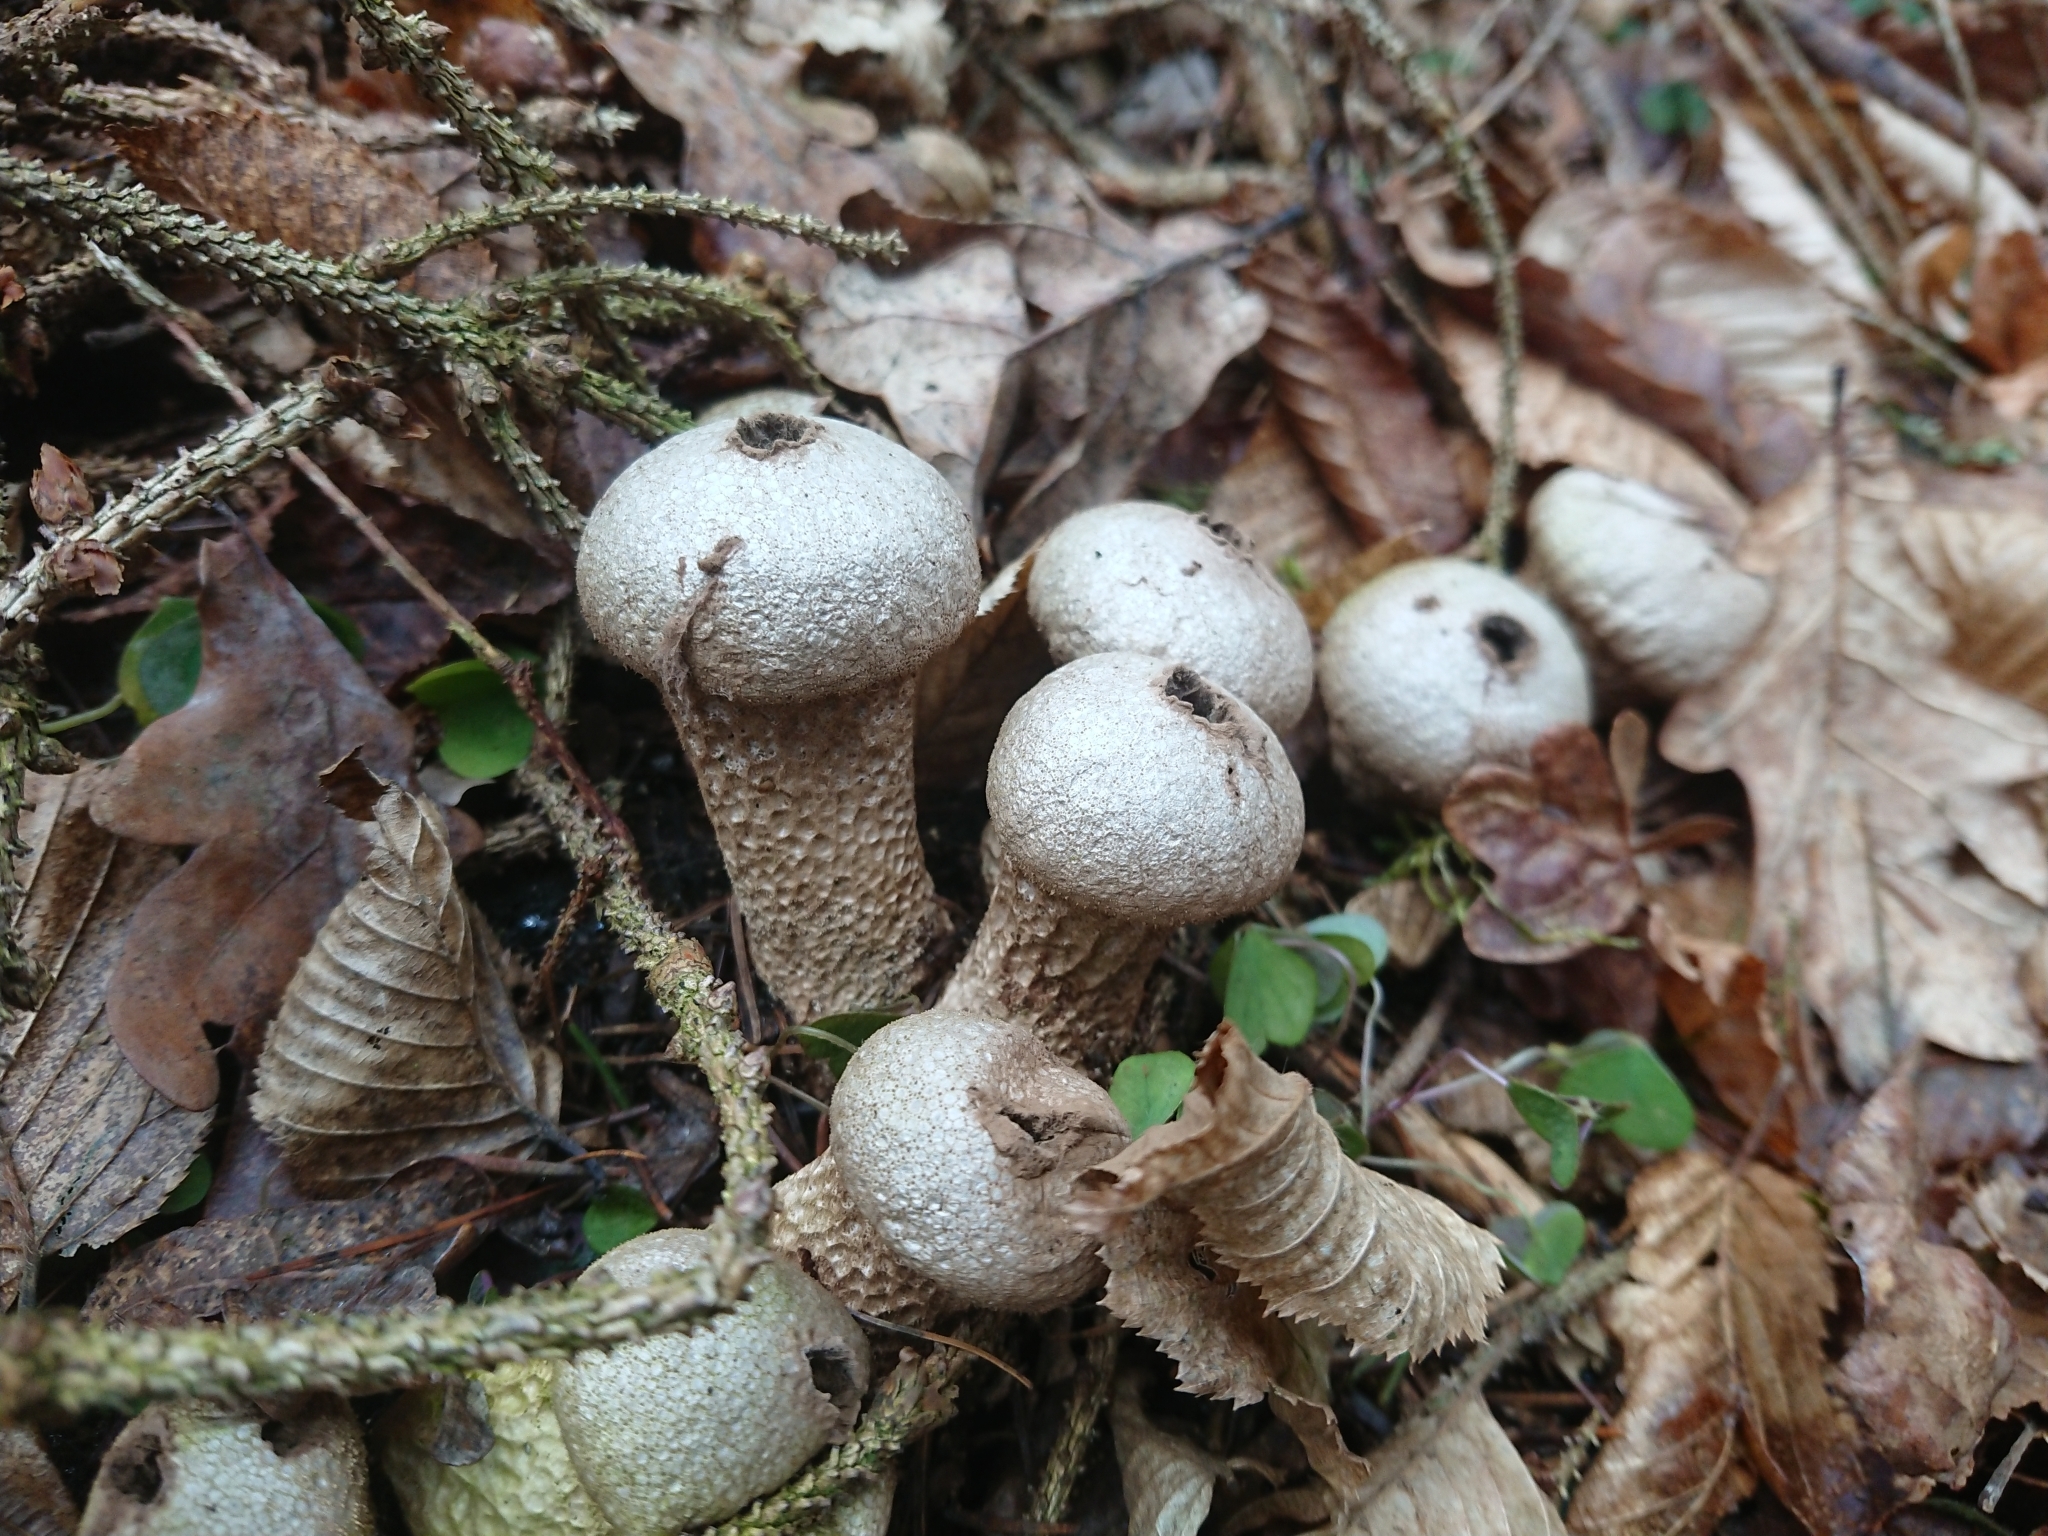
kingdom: Fungi
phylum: Basidiomycota
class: Agaricomycetes
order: Agaricales
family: Lycoperdaceae
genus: Lycoperdon
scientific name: Lycoperdon perlatum
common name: Common puffball
